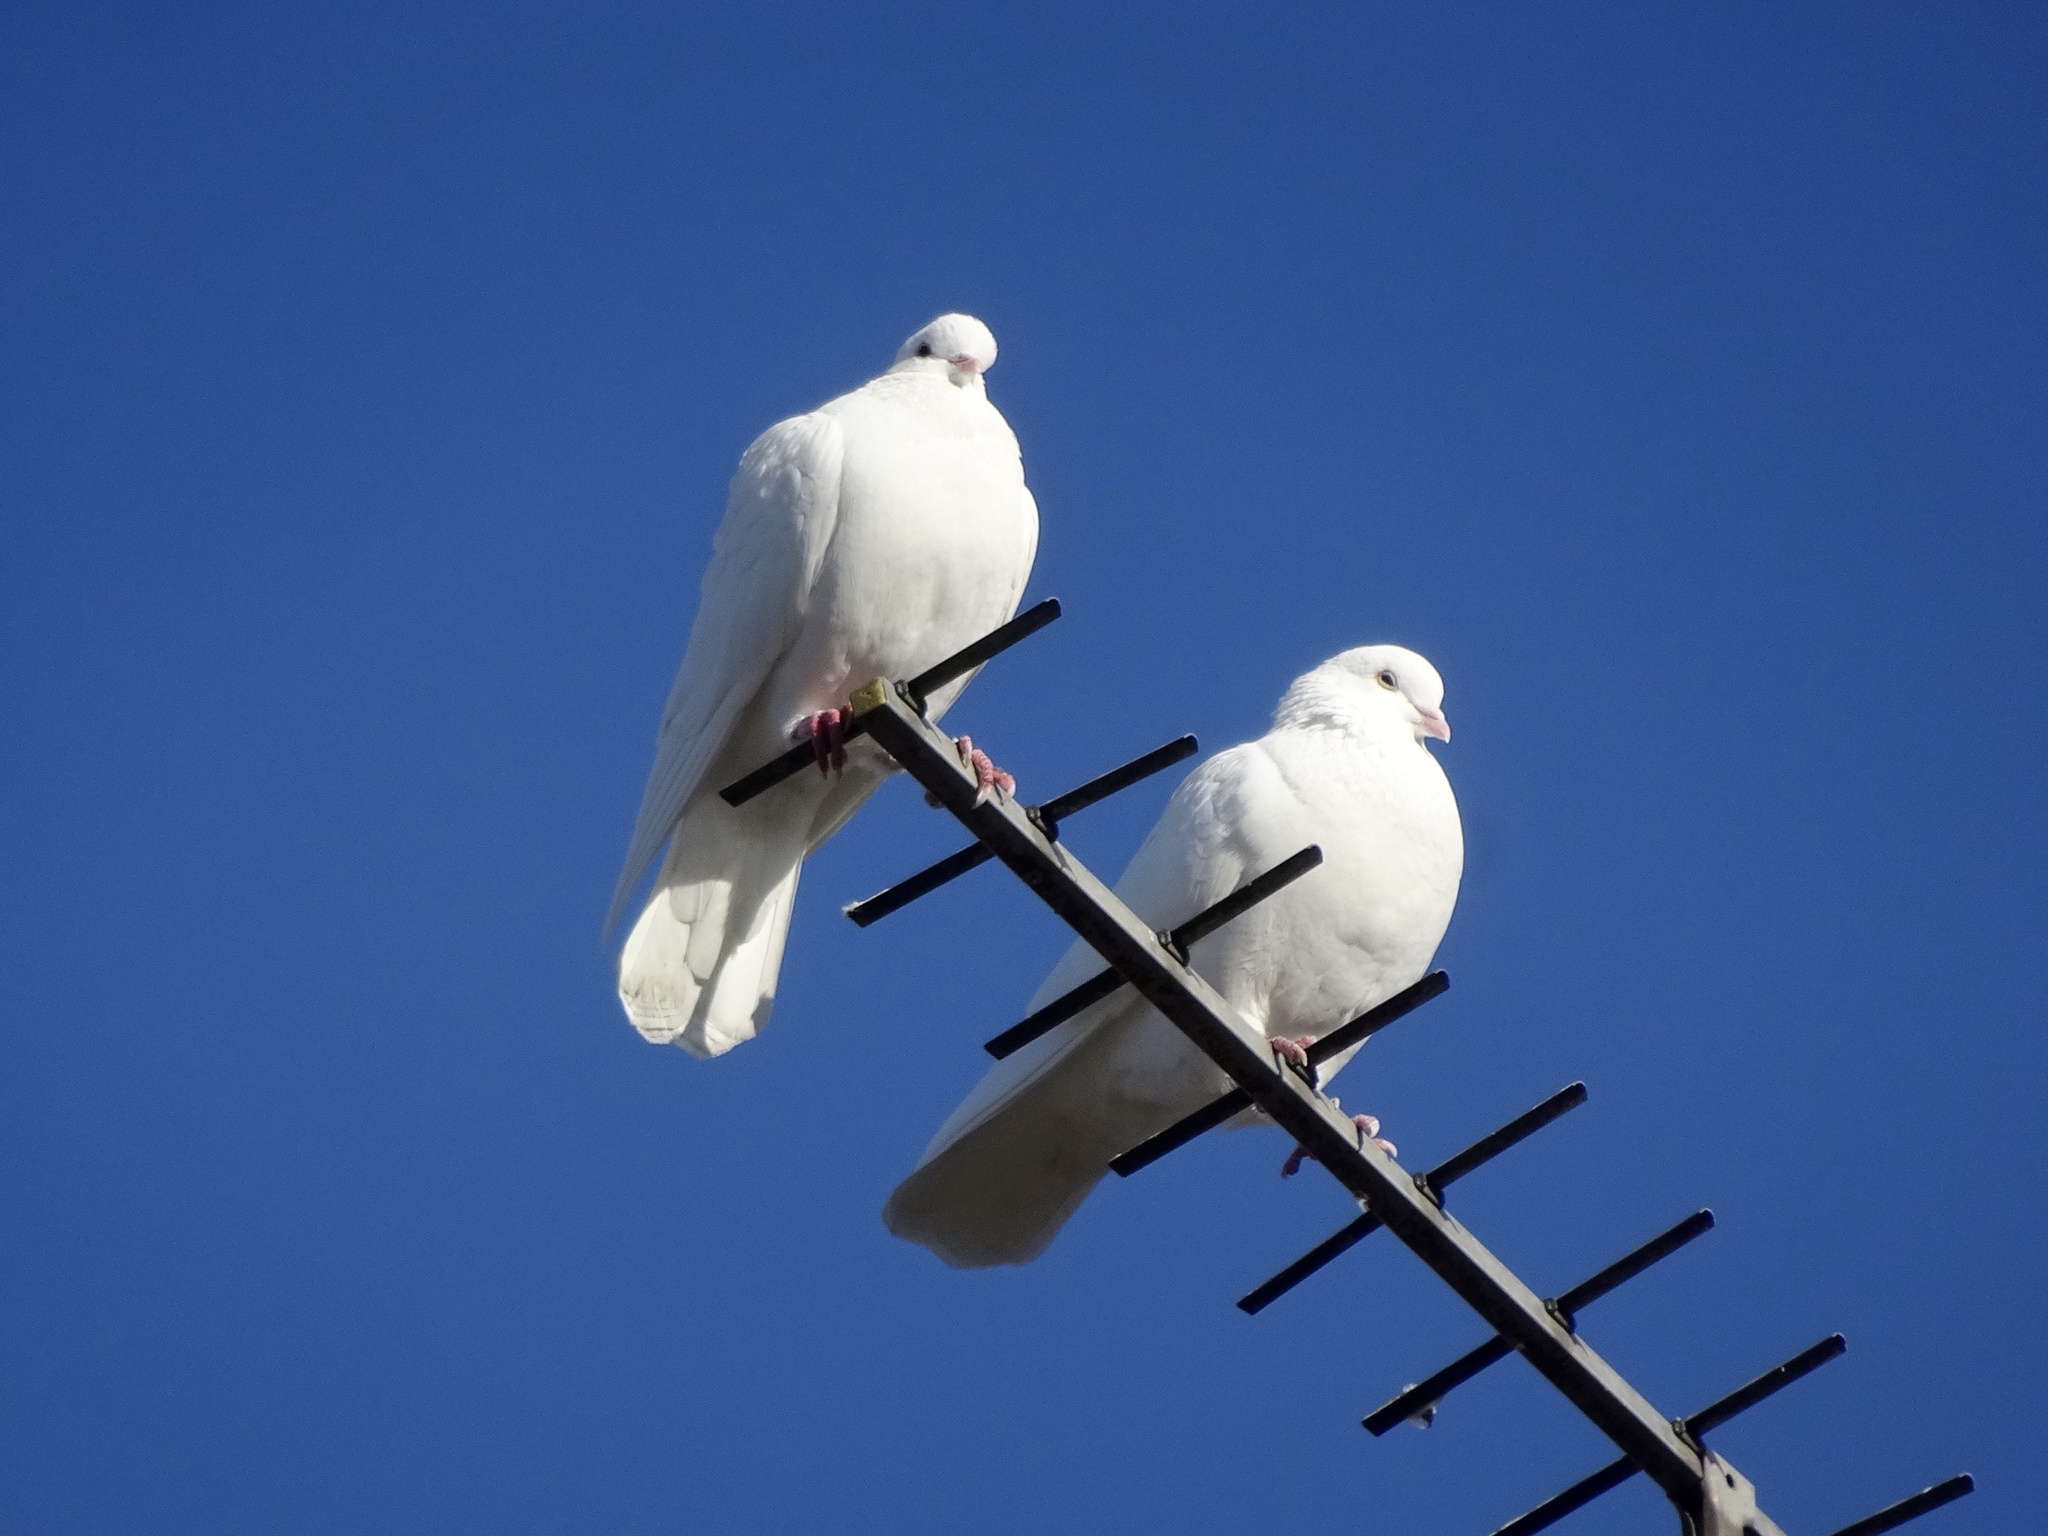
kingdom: Animalia
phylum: Chordata
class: Aves
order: Columbiformes
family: Columbidae
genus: Columba
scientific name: Columba livia
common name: Rock pigeon
